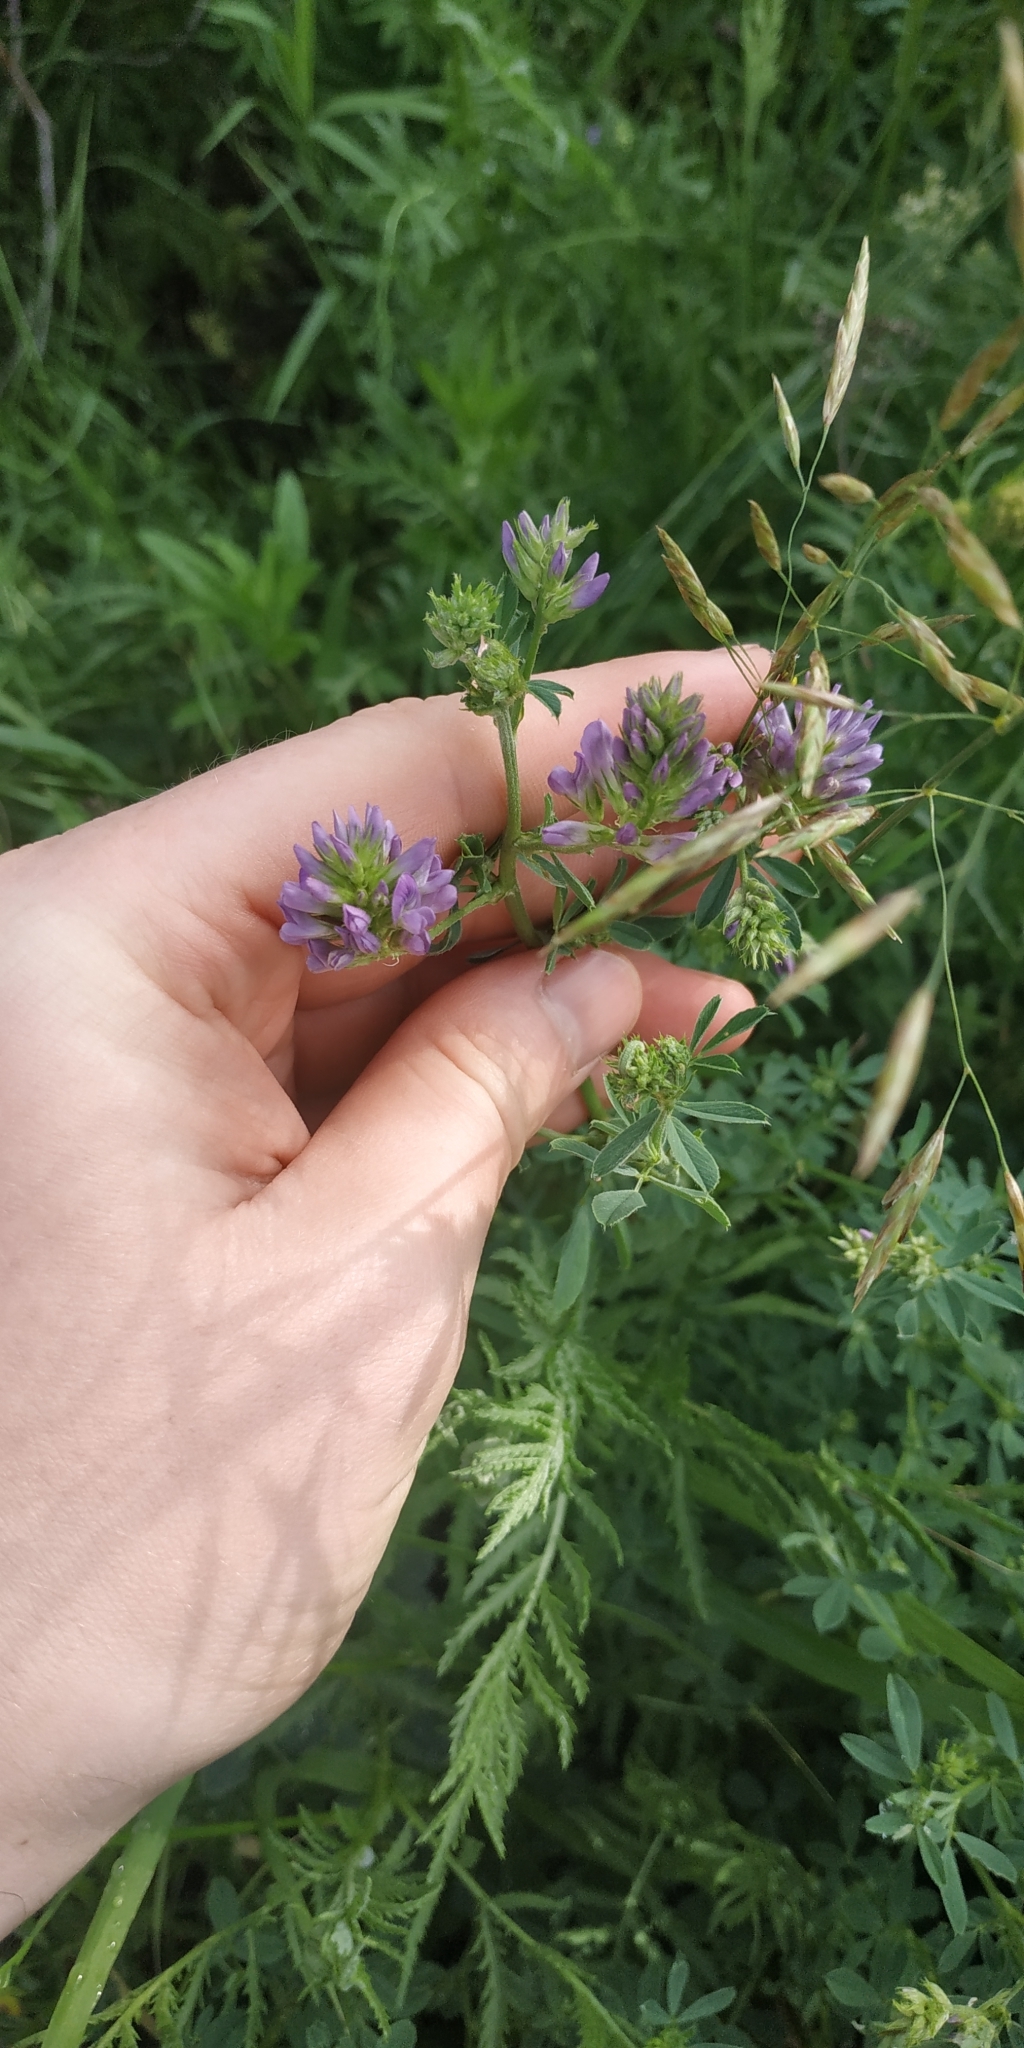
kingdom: Plantae
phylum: Tracheophyta
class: Magnoliopsida
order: Fabales
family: Fabaceae
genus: Medicago
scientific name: Medicago sativa
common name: Alfalfa
